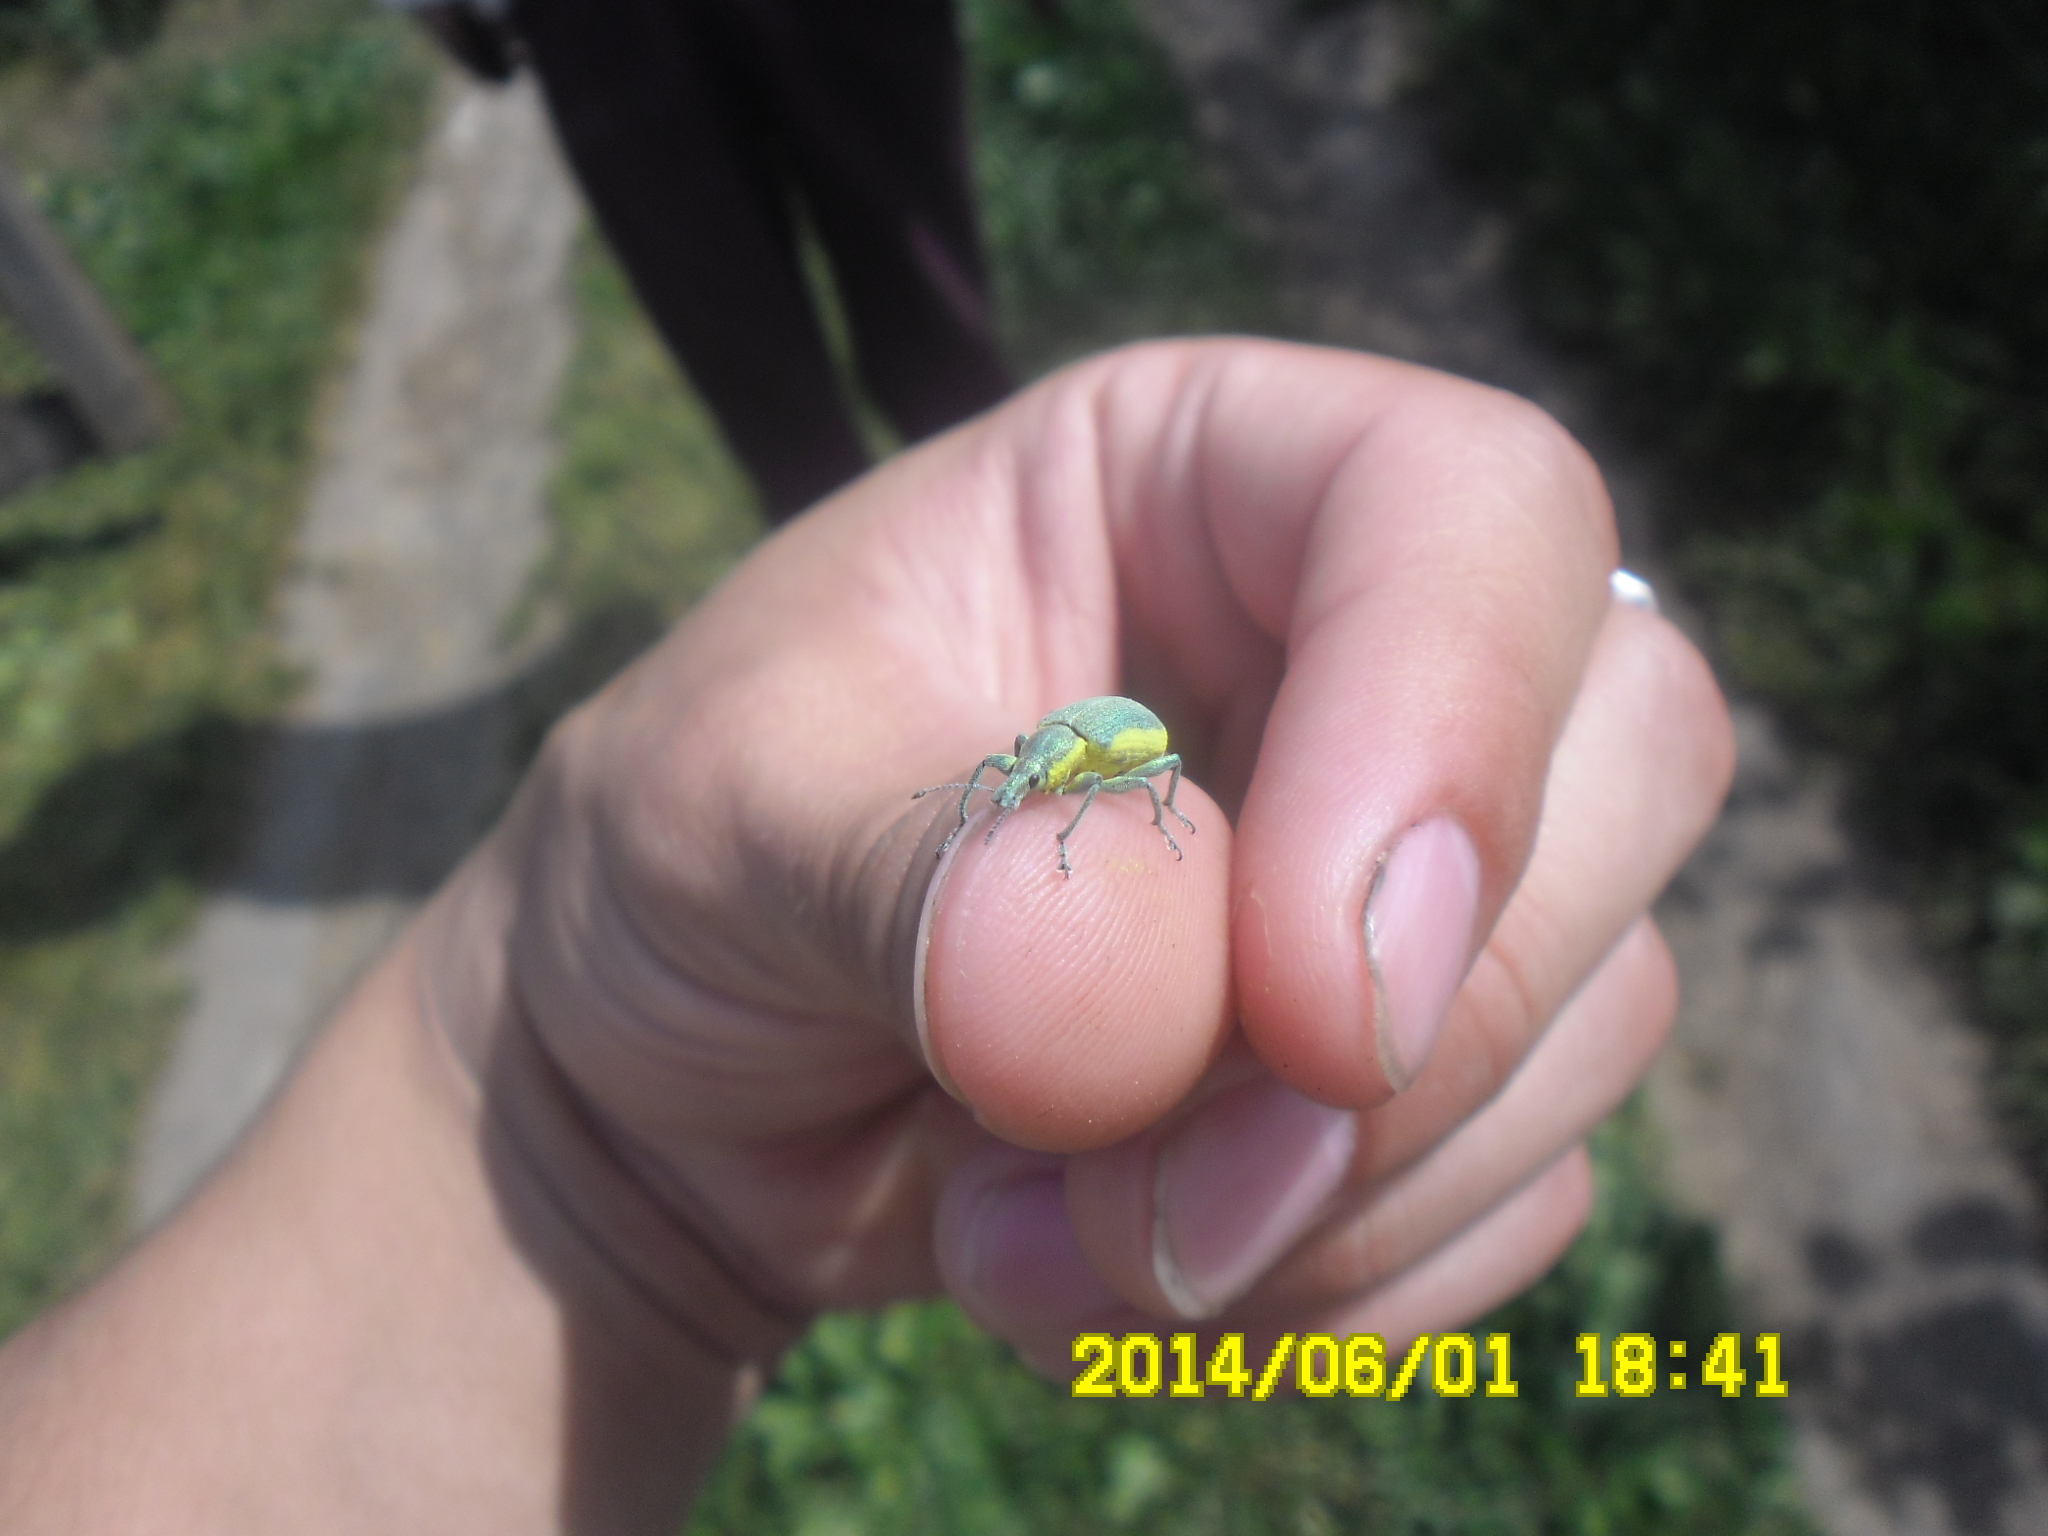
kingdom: Animalia
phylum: Arthropoda
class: Insecta
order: Coleoptera
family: Curculionidae
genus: Chlorophanus
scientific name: Chlorophanus viridis
